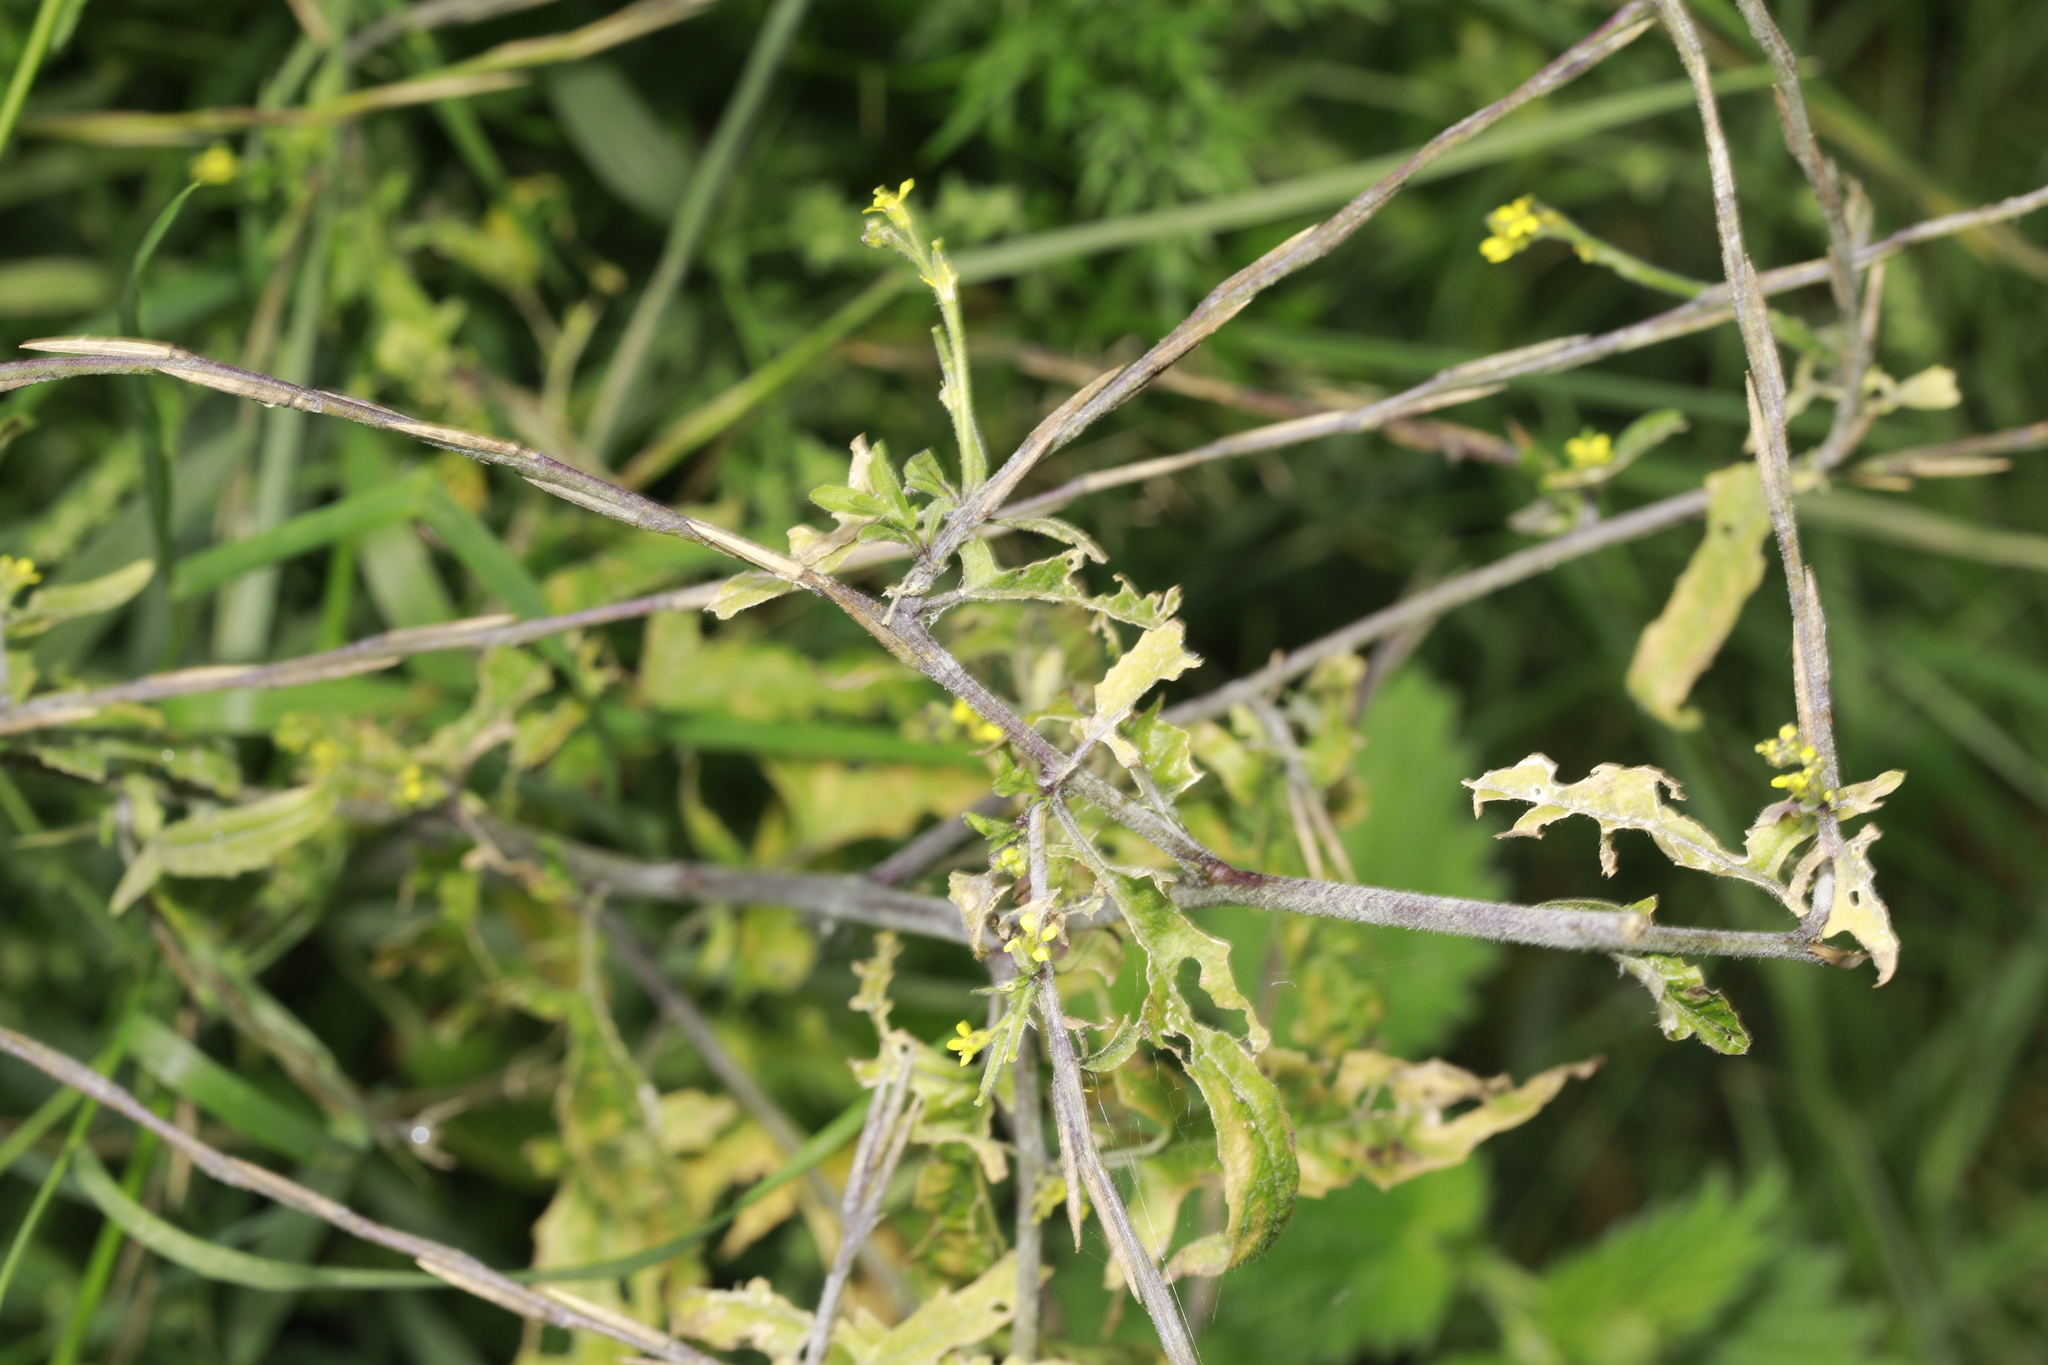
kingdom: Plantae
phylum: Tracheophyta
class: Magnoliopsida
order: Brassicales
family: Brassicaceae
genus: Sisymbrium
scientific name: Sisymbrium officinale
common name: Hedge mustard
